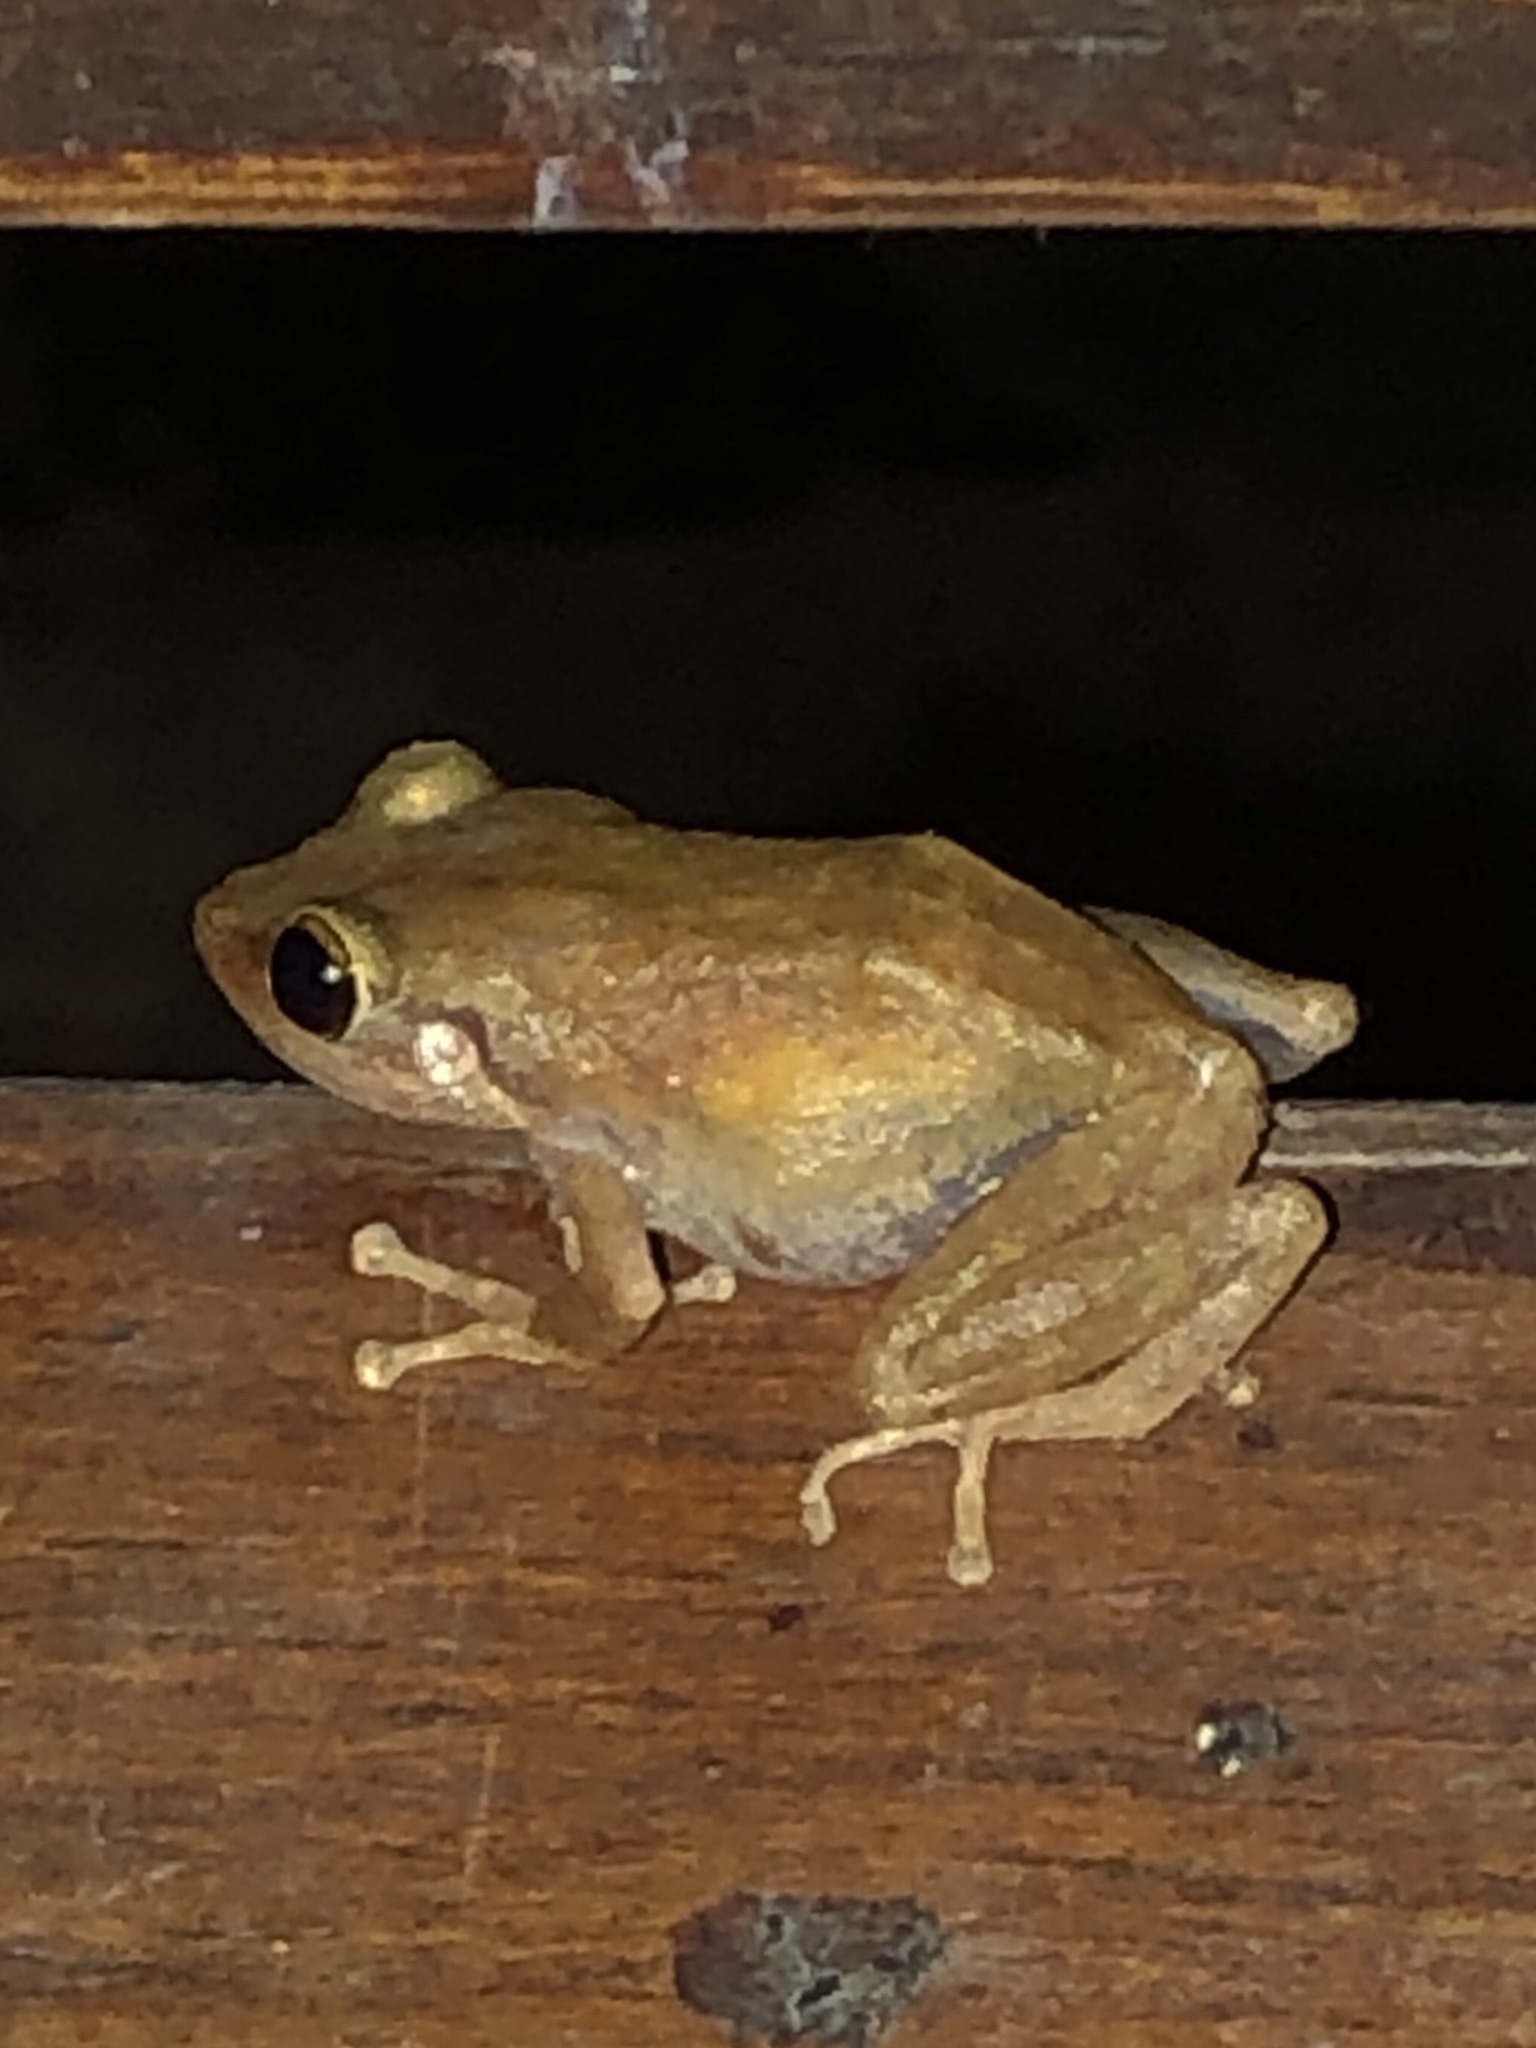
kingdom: Animalia
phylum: Chordata
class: Amphibia
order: Anura
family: Eleutherodactylidae
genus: Eleutherodactylus
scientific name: Eleutherodactylus coqui
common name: Coqui frog
